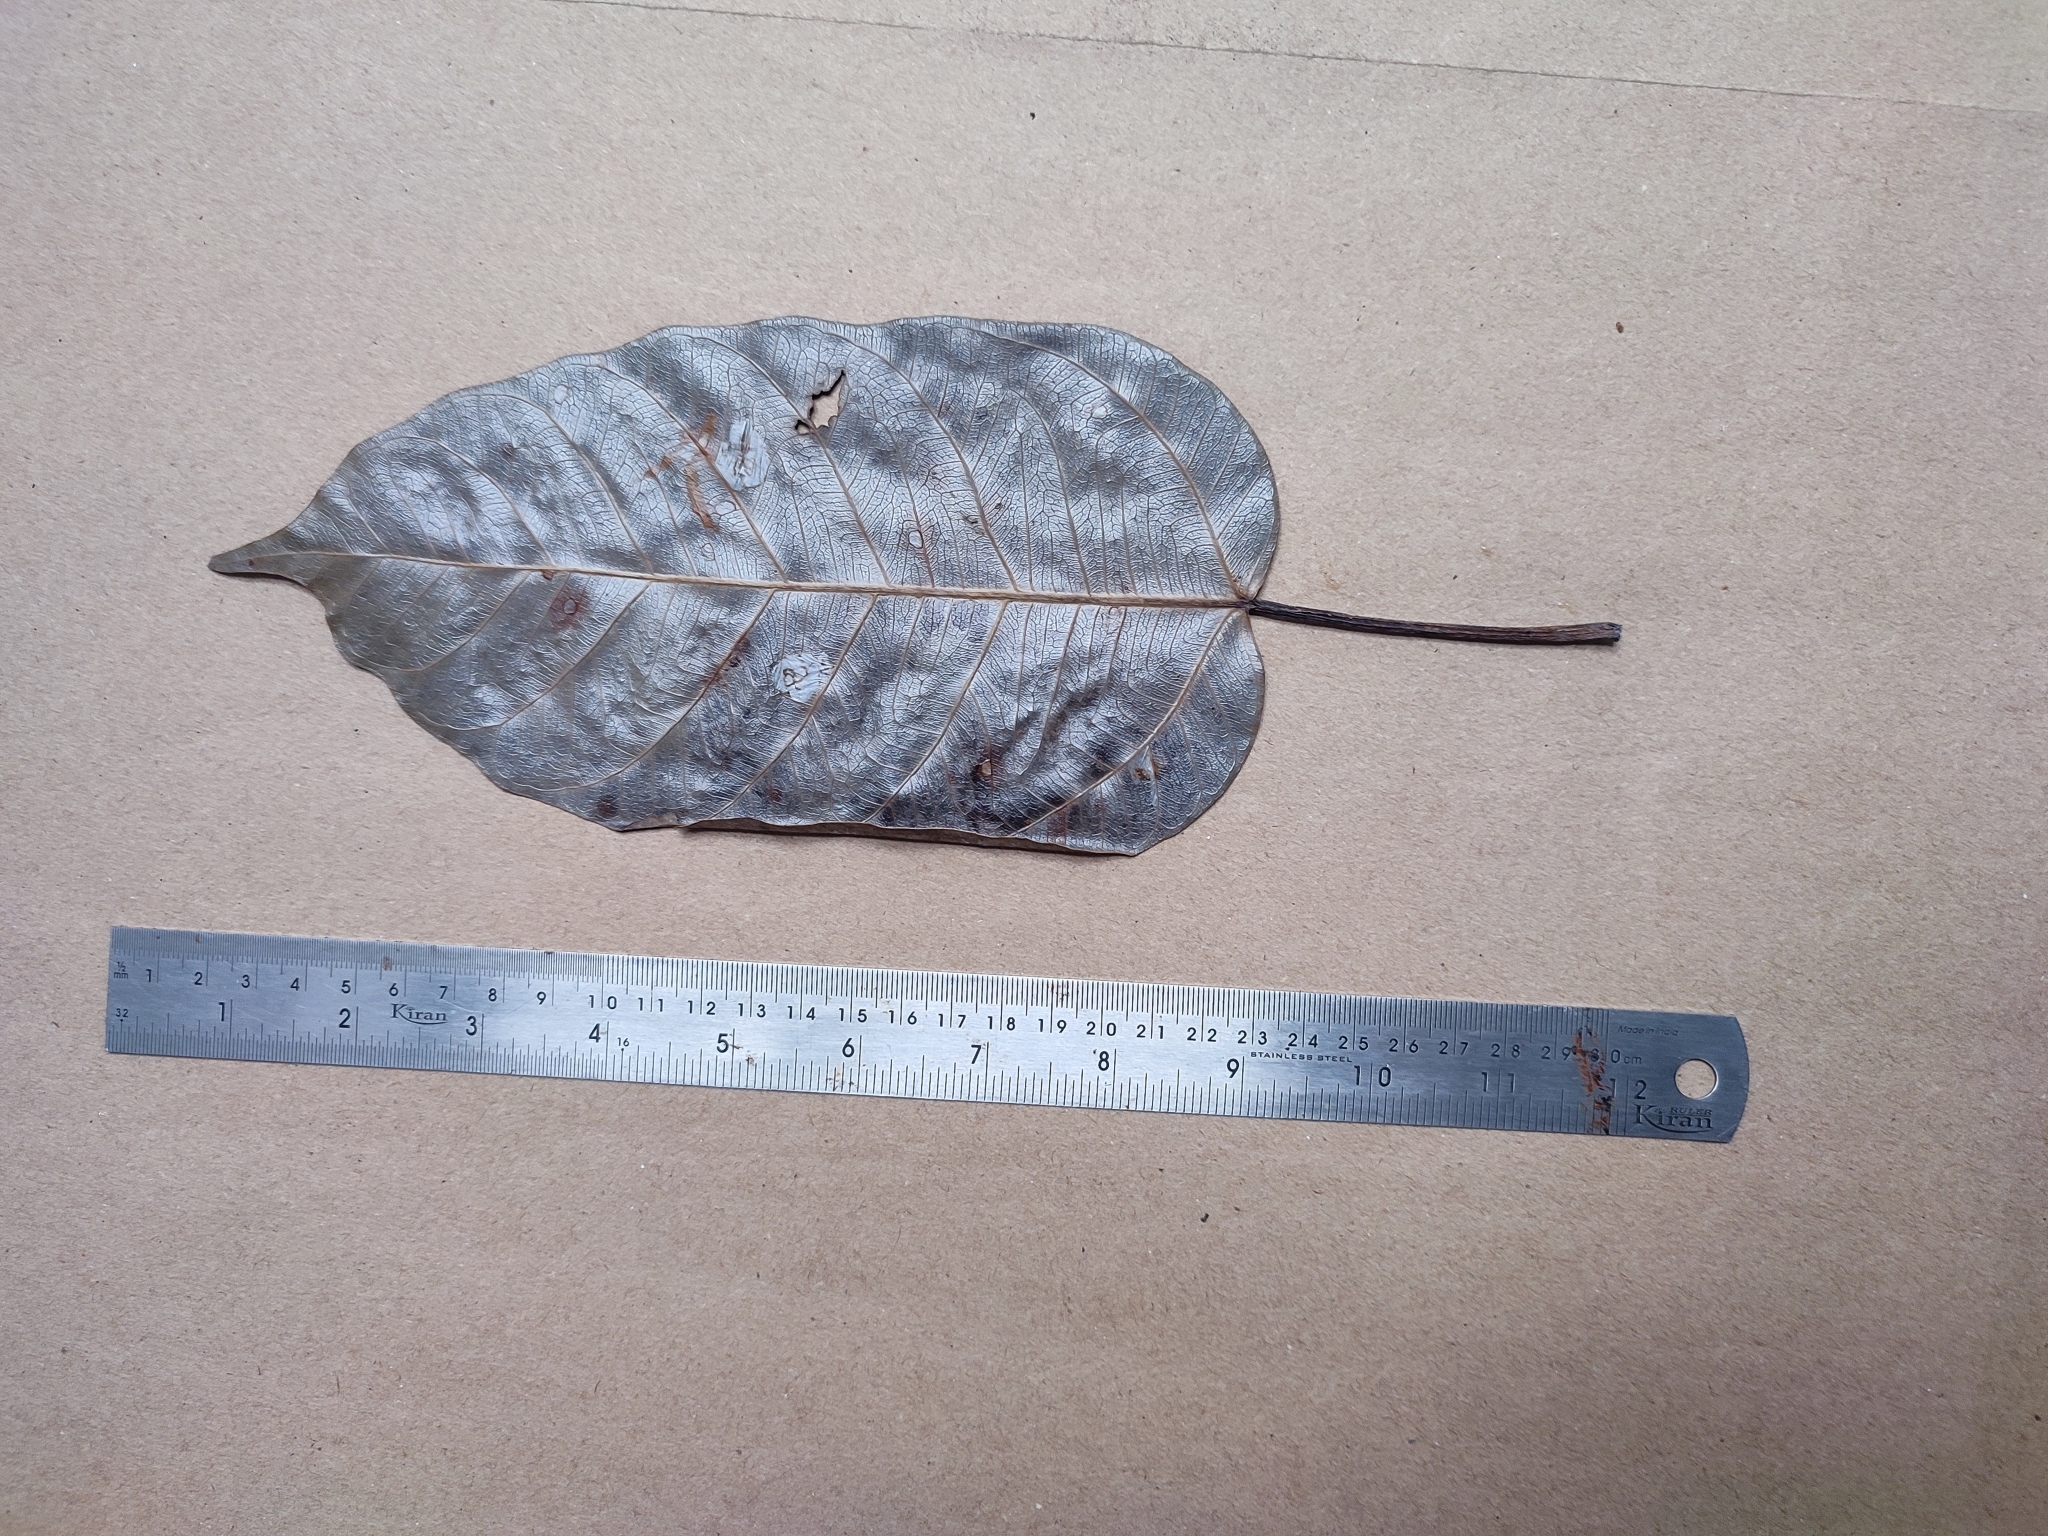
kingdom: Plantae
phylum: Tracheophyta
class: Magnoliopsida
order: Rosales
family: Moraceae
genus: Ficus
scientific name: Ficus tsjakela
